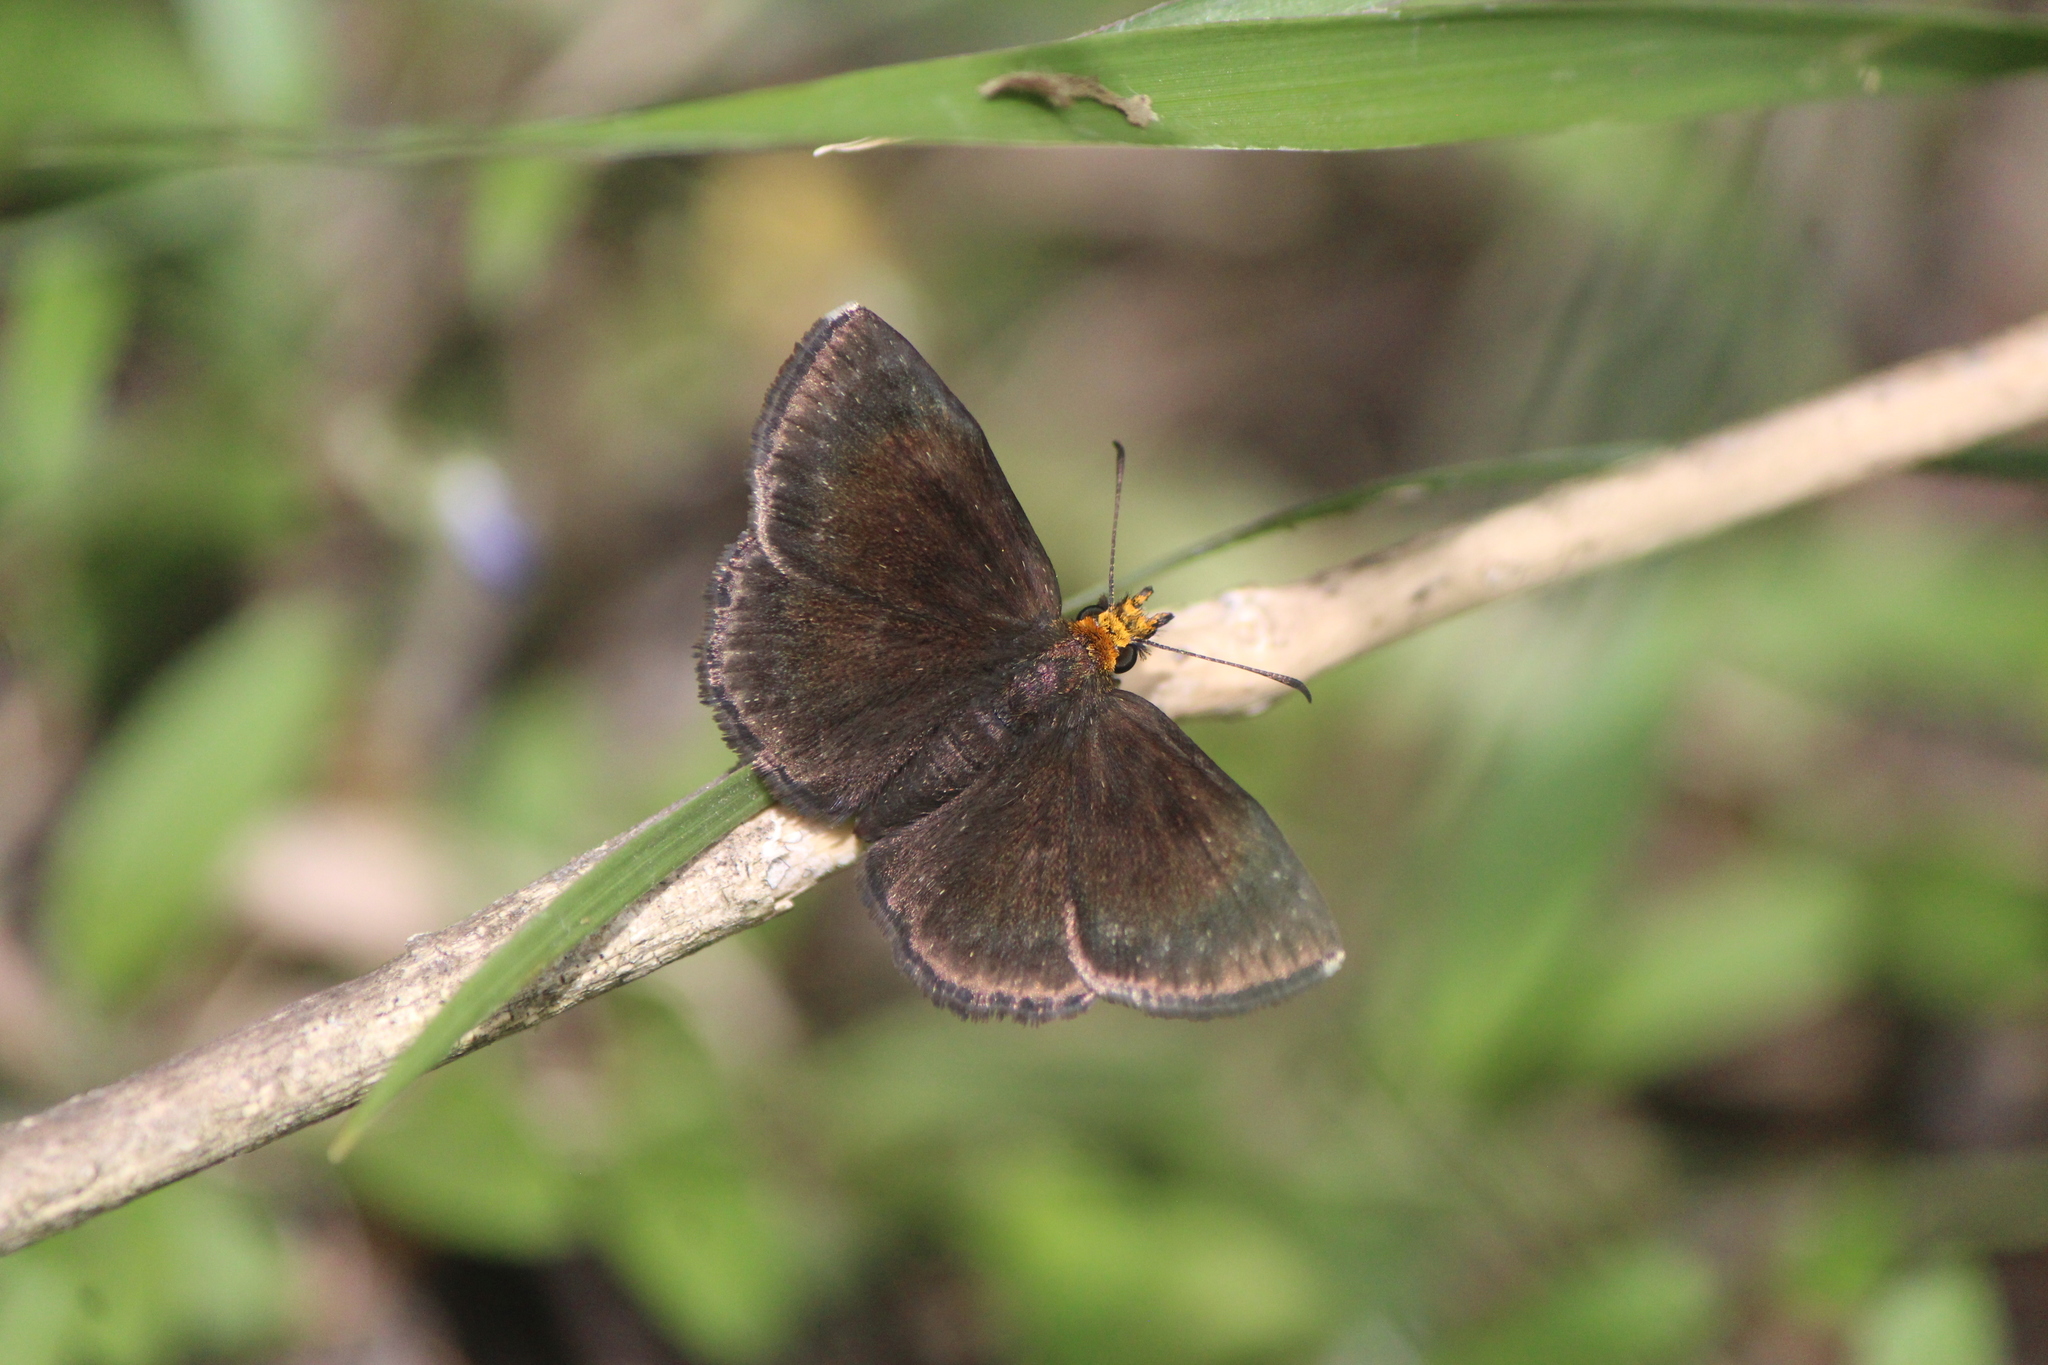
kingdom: Animalia
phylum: Arthropoda
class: Insecta
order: Lepidoptera
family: Hesperiidae
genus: Staphylus
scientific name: Staphylus ceos
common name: Golden-headed scallopwing
